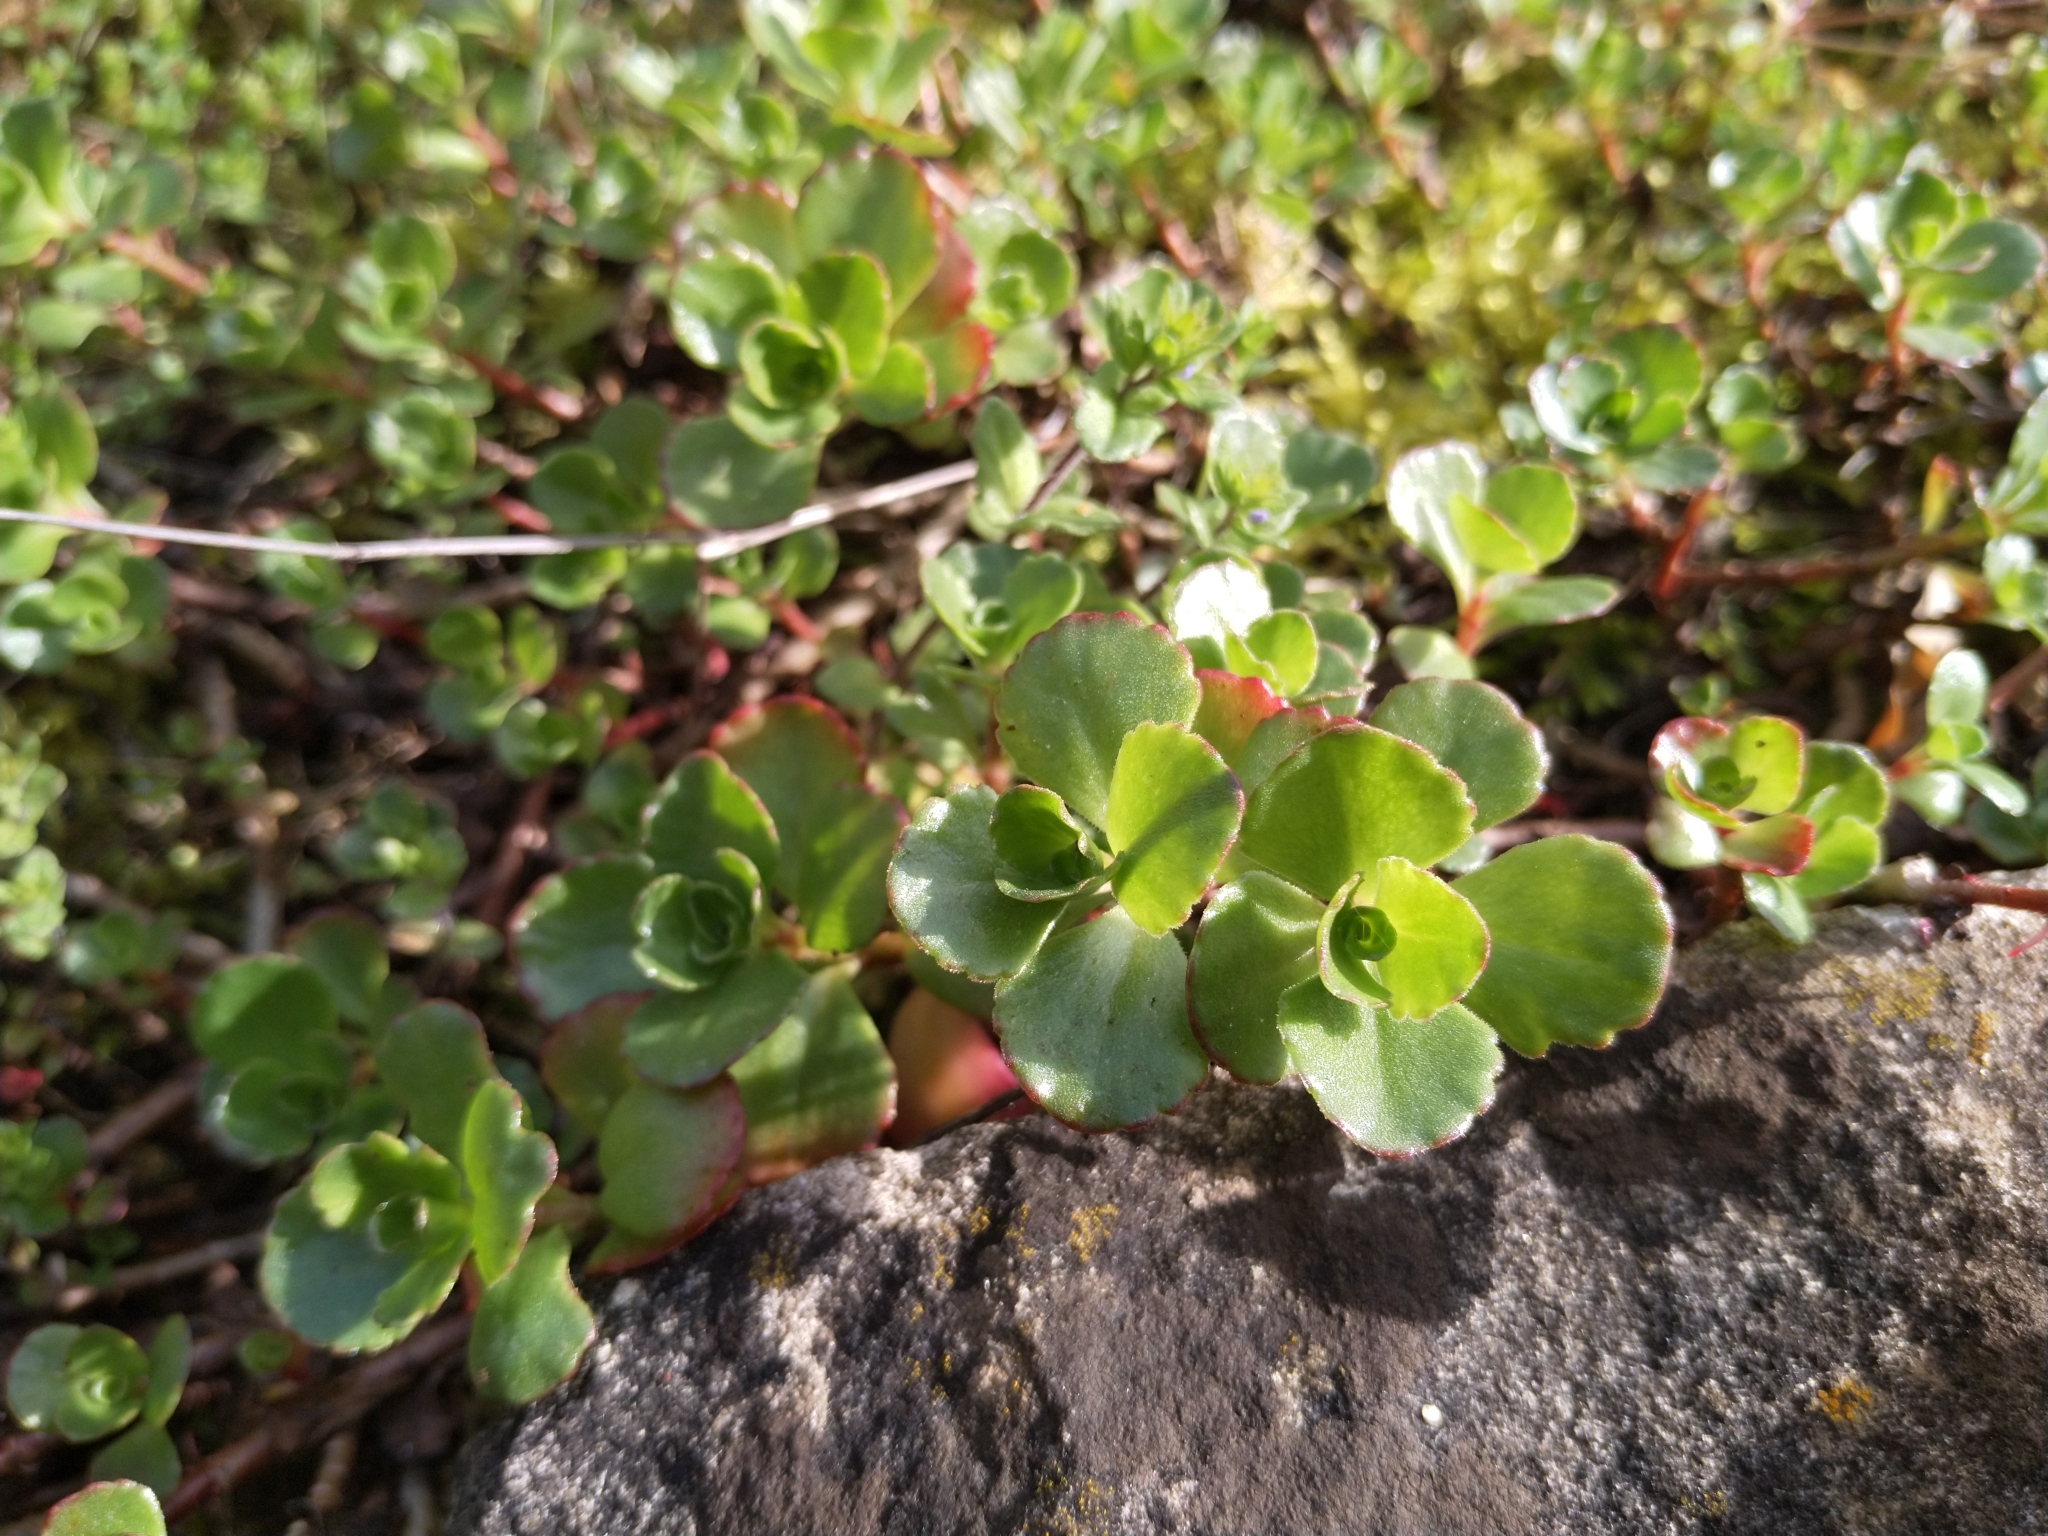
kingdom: Plantae
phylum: Tracheophyta
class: Magnoliopsida
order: Saxifragales
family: Crassulaceae
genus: Phedimus
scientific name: Phedimus spurius
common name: Caucasian stonecrop
